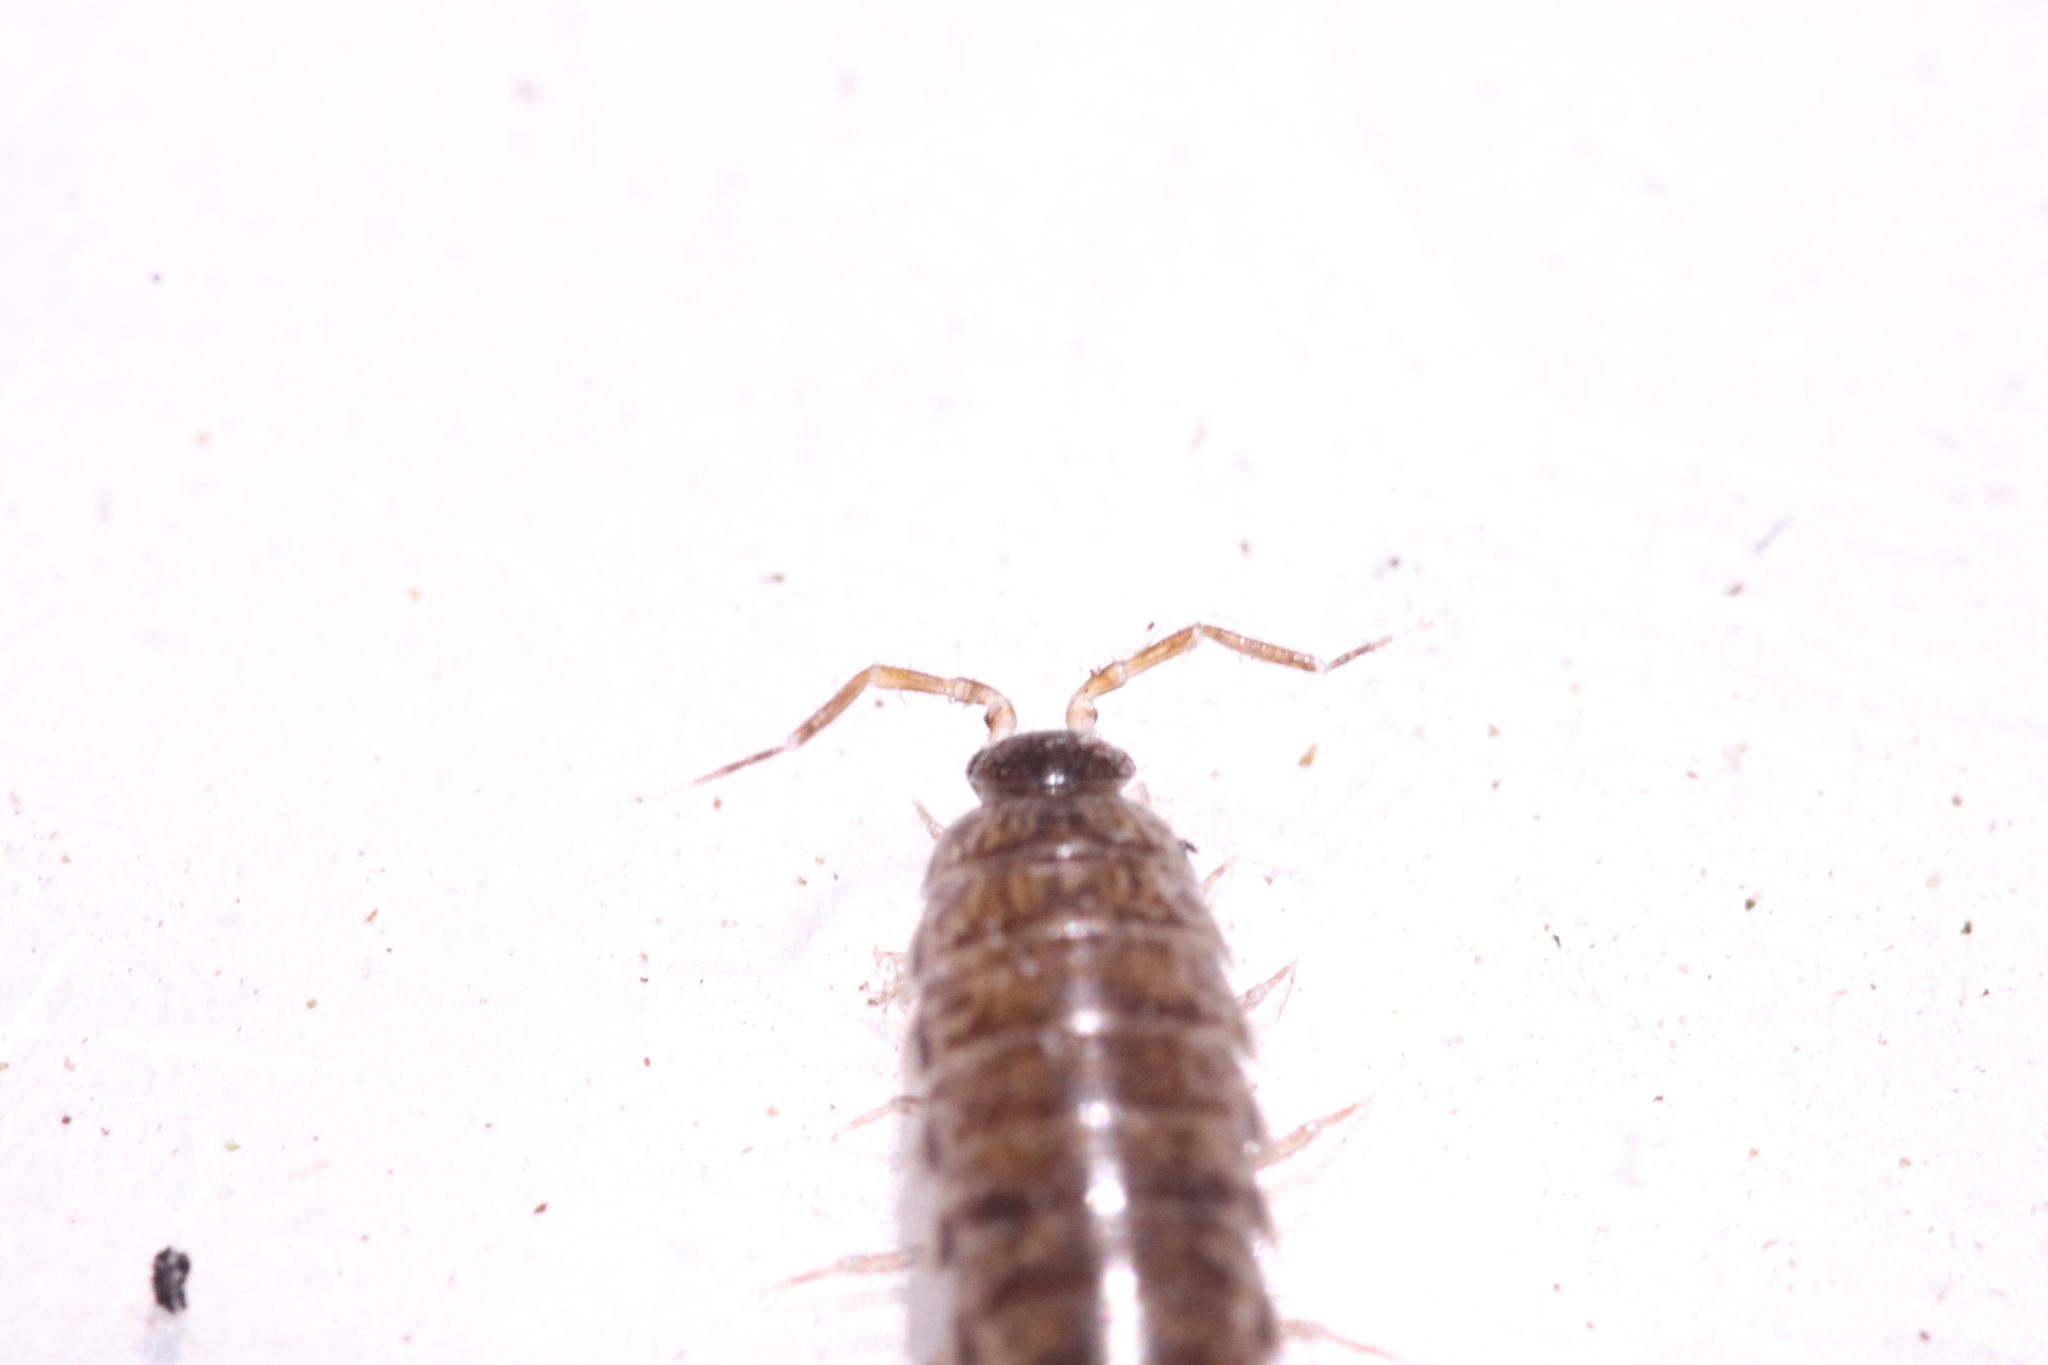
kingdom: Animalia
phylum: Arthropoda
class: Malacostraca
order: Isopoda
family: Philosciidae
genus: Chaetophiloscia
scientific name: Chaetophiloscia elongata
